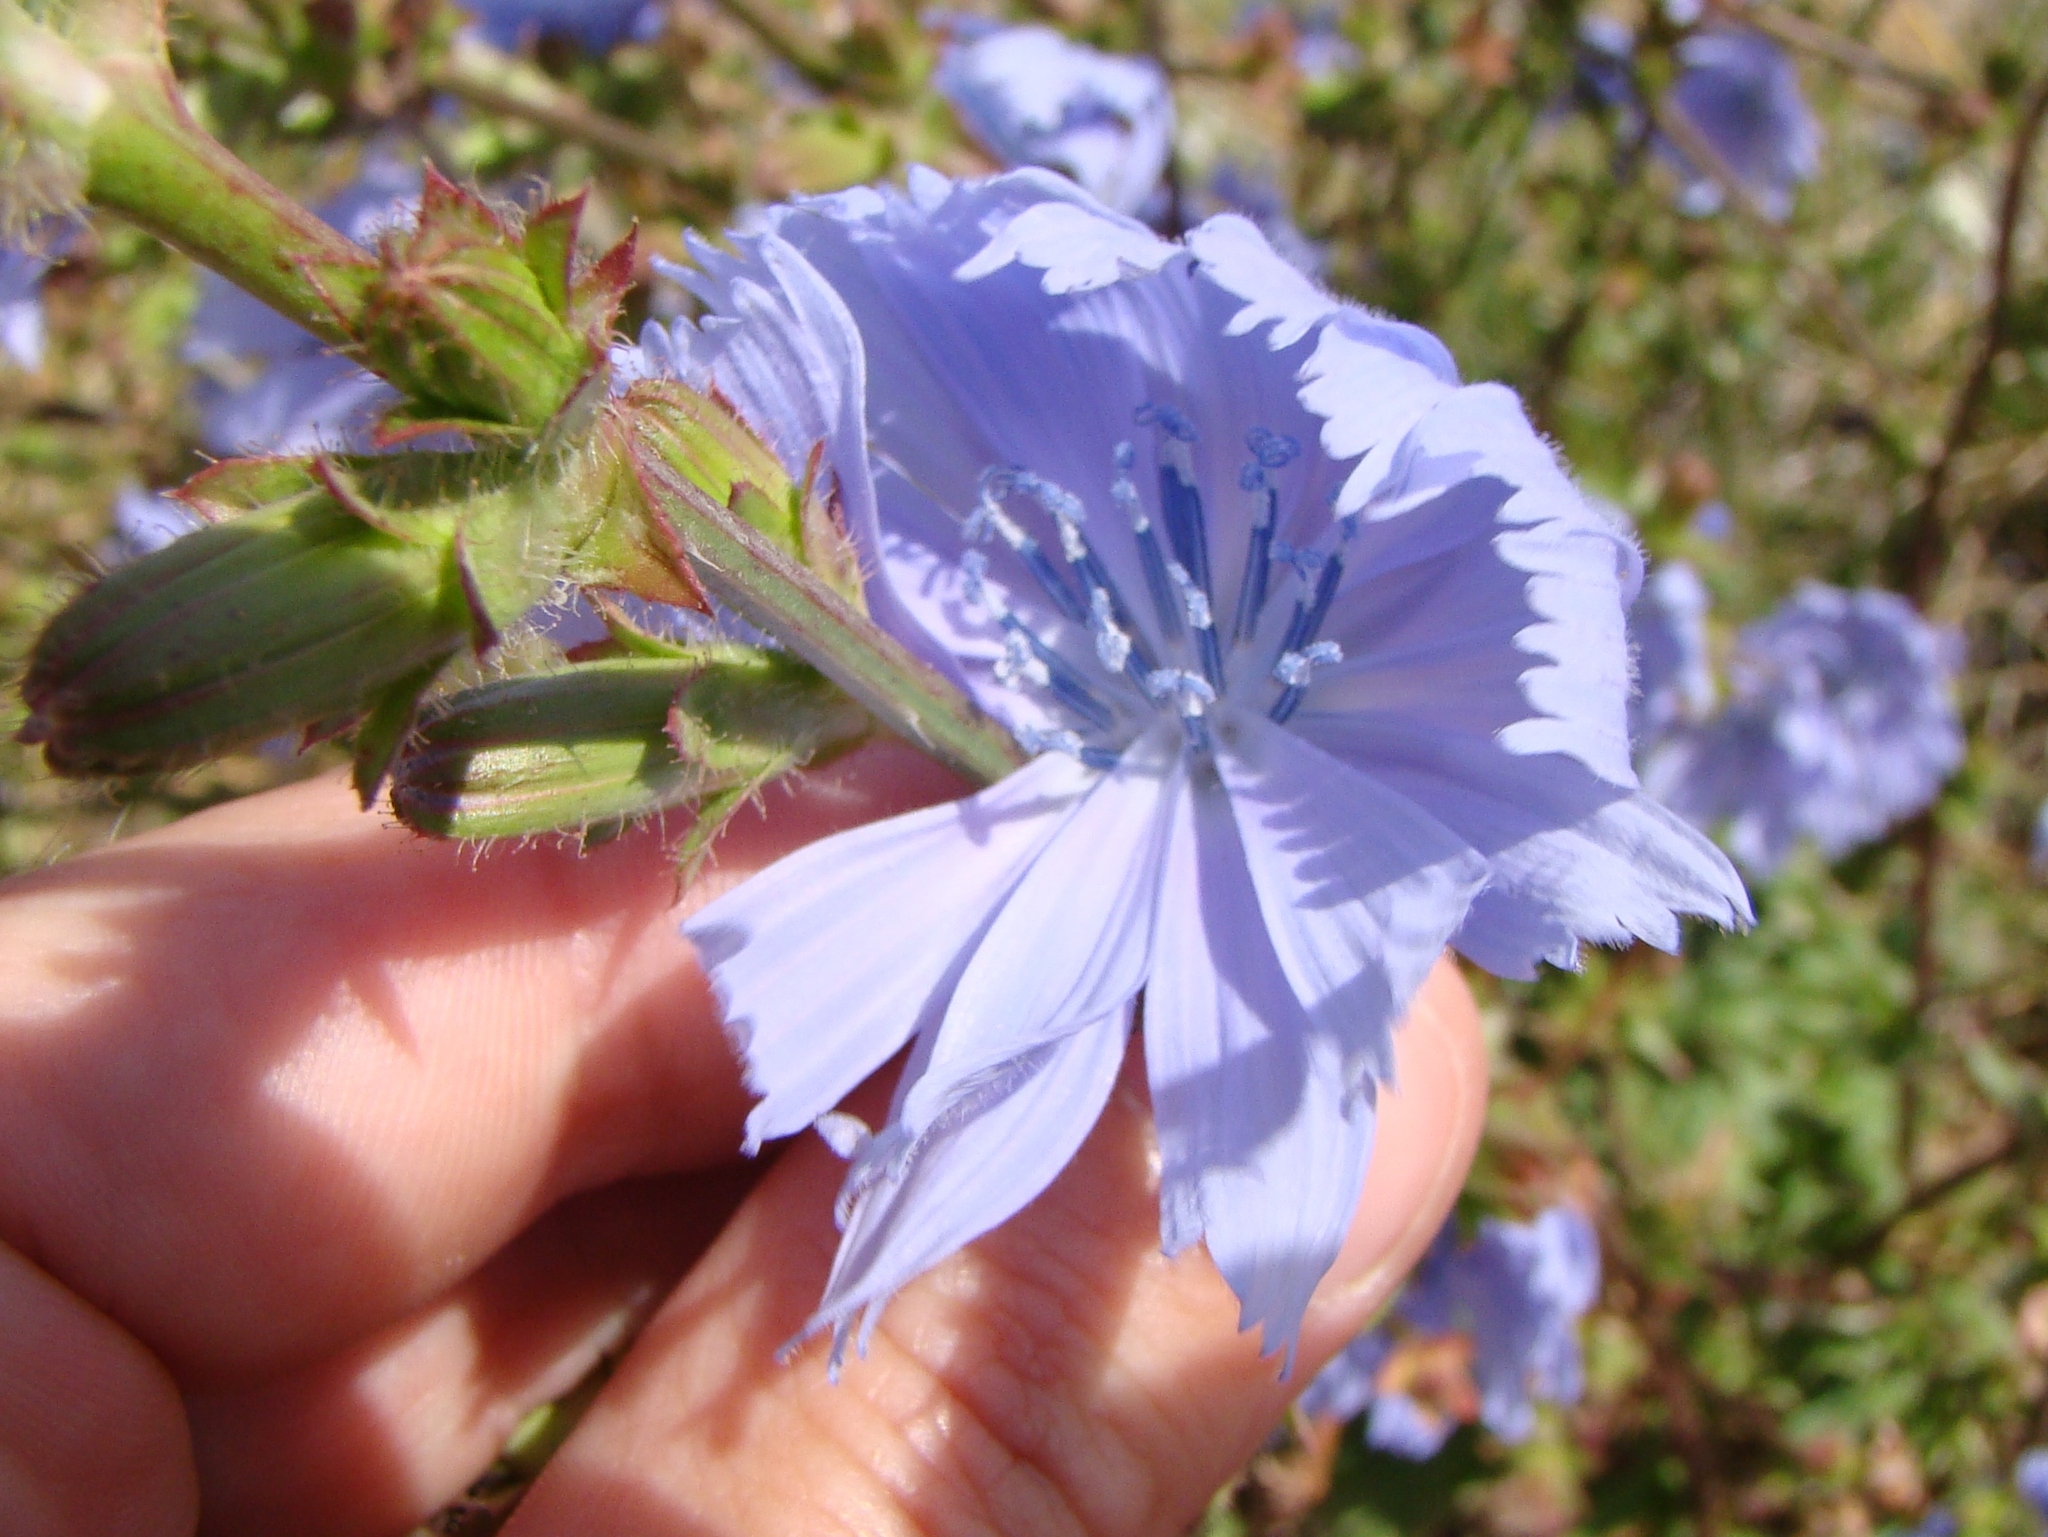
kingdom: Plantae
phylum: Tracheophyta
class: Magnoliopsida
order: Asterales
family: Asteraceae
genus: Cichorium
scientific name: Cichorium intybus
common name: Chicory
